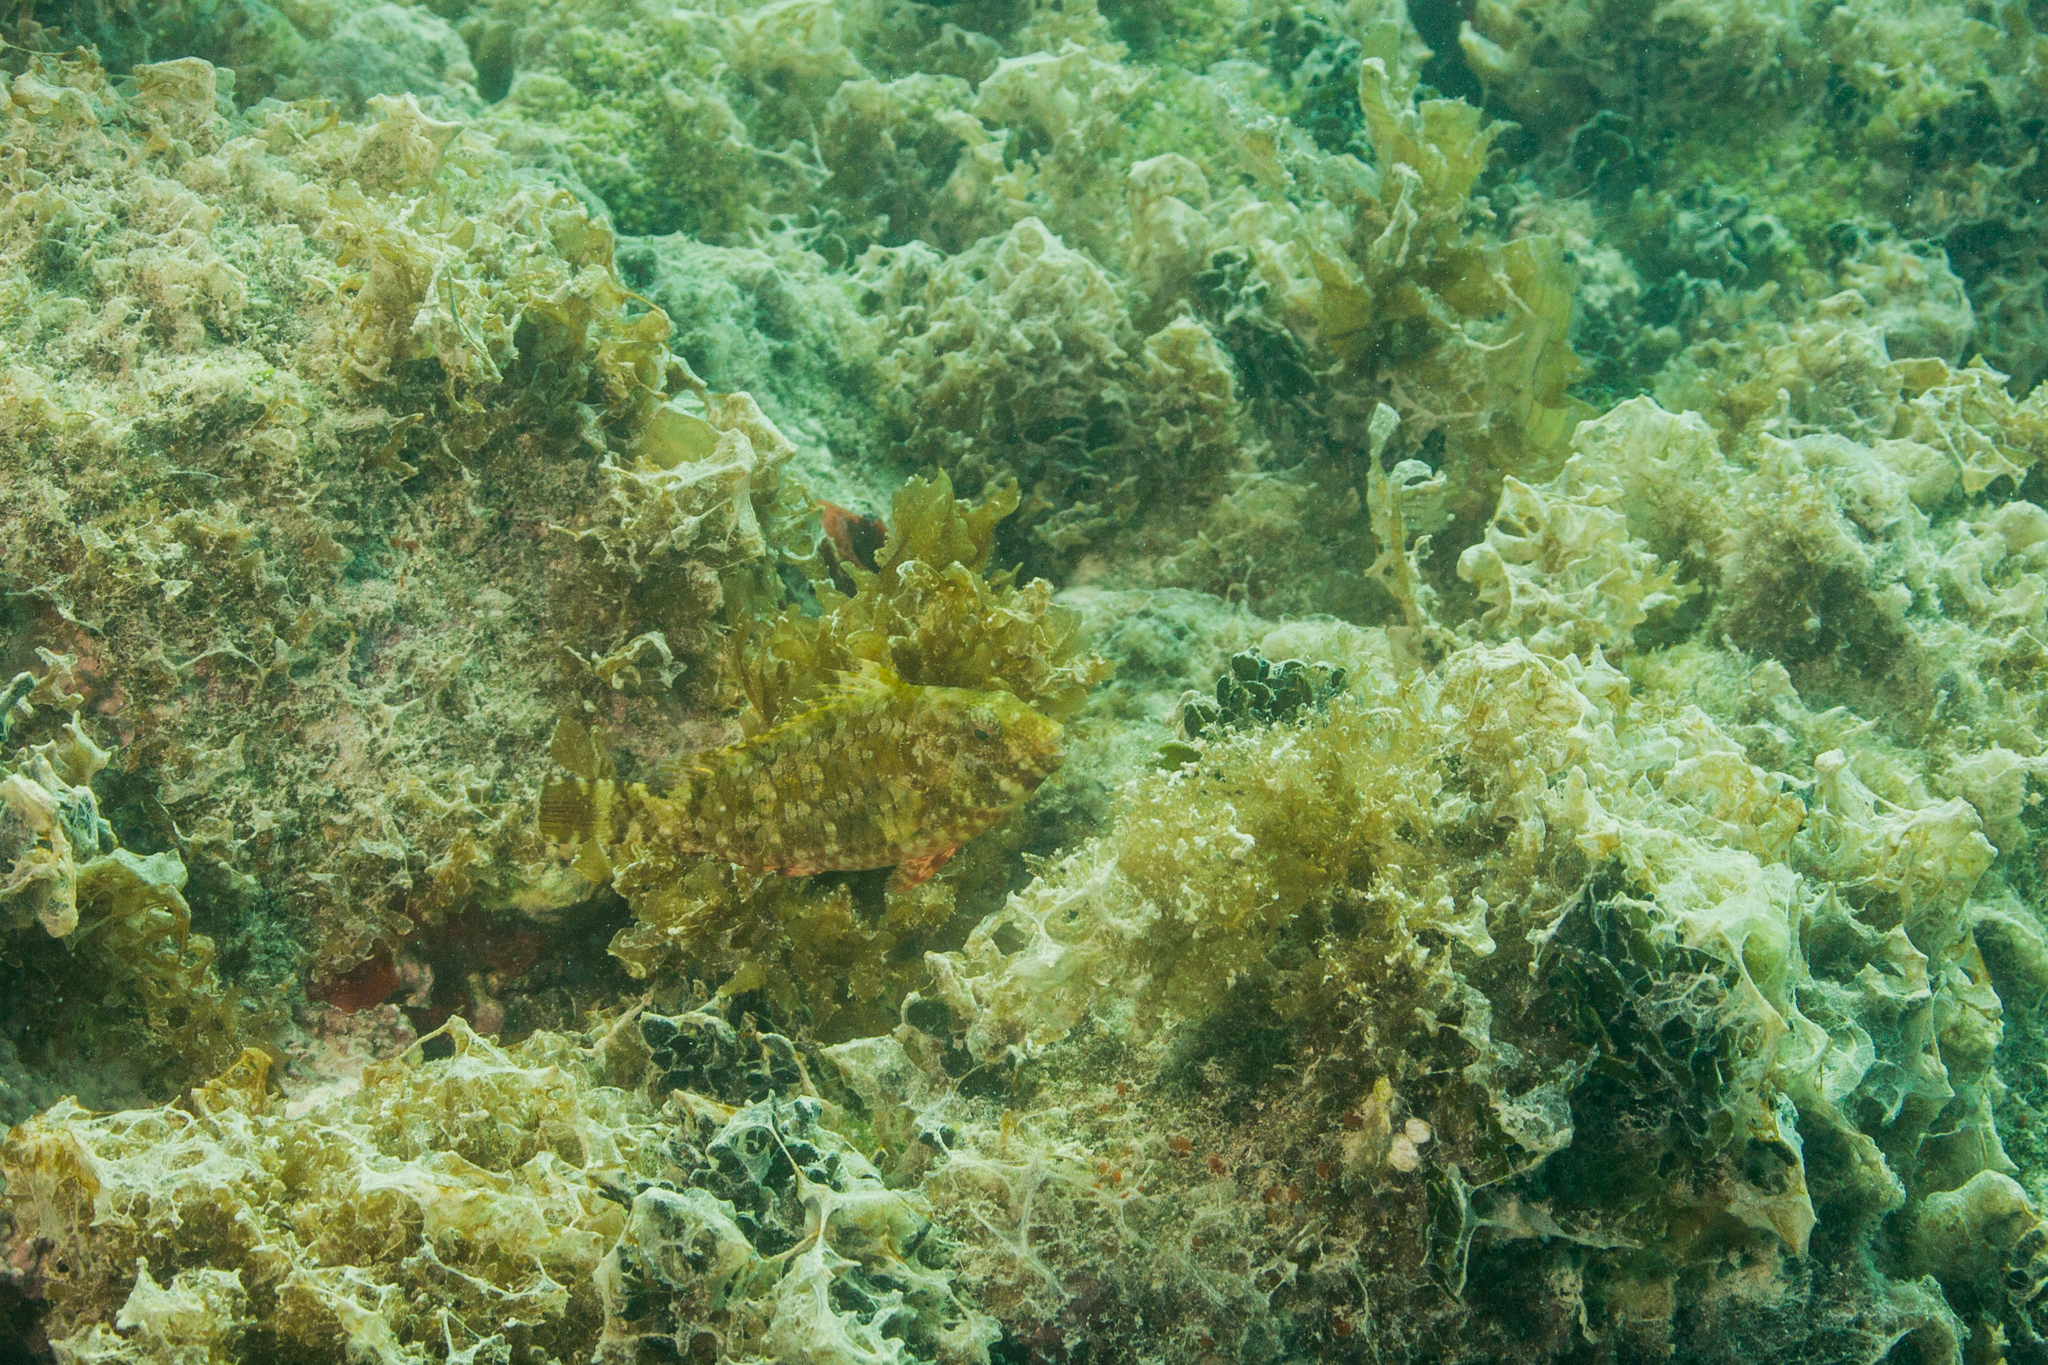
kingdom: Animalia
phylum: Chordata
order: Perciformes
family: Scaridae
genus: Sparisoma
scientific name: Sparisoma axillare
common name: Gray parrotfish
